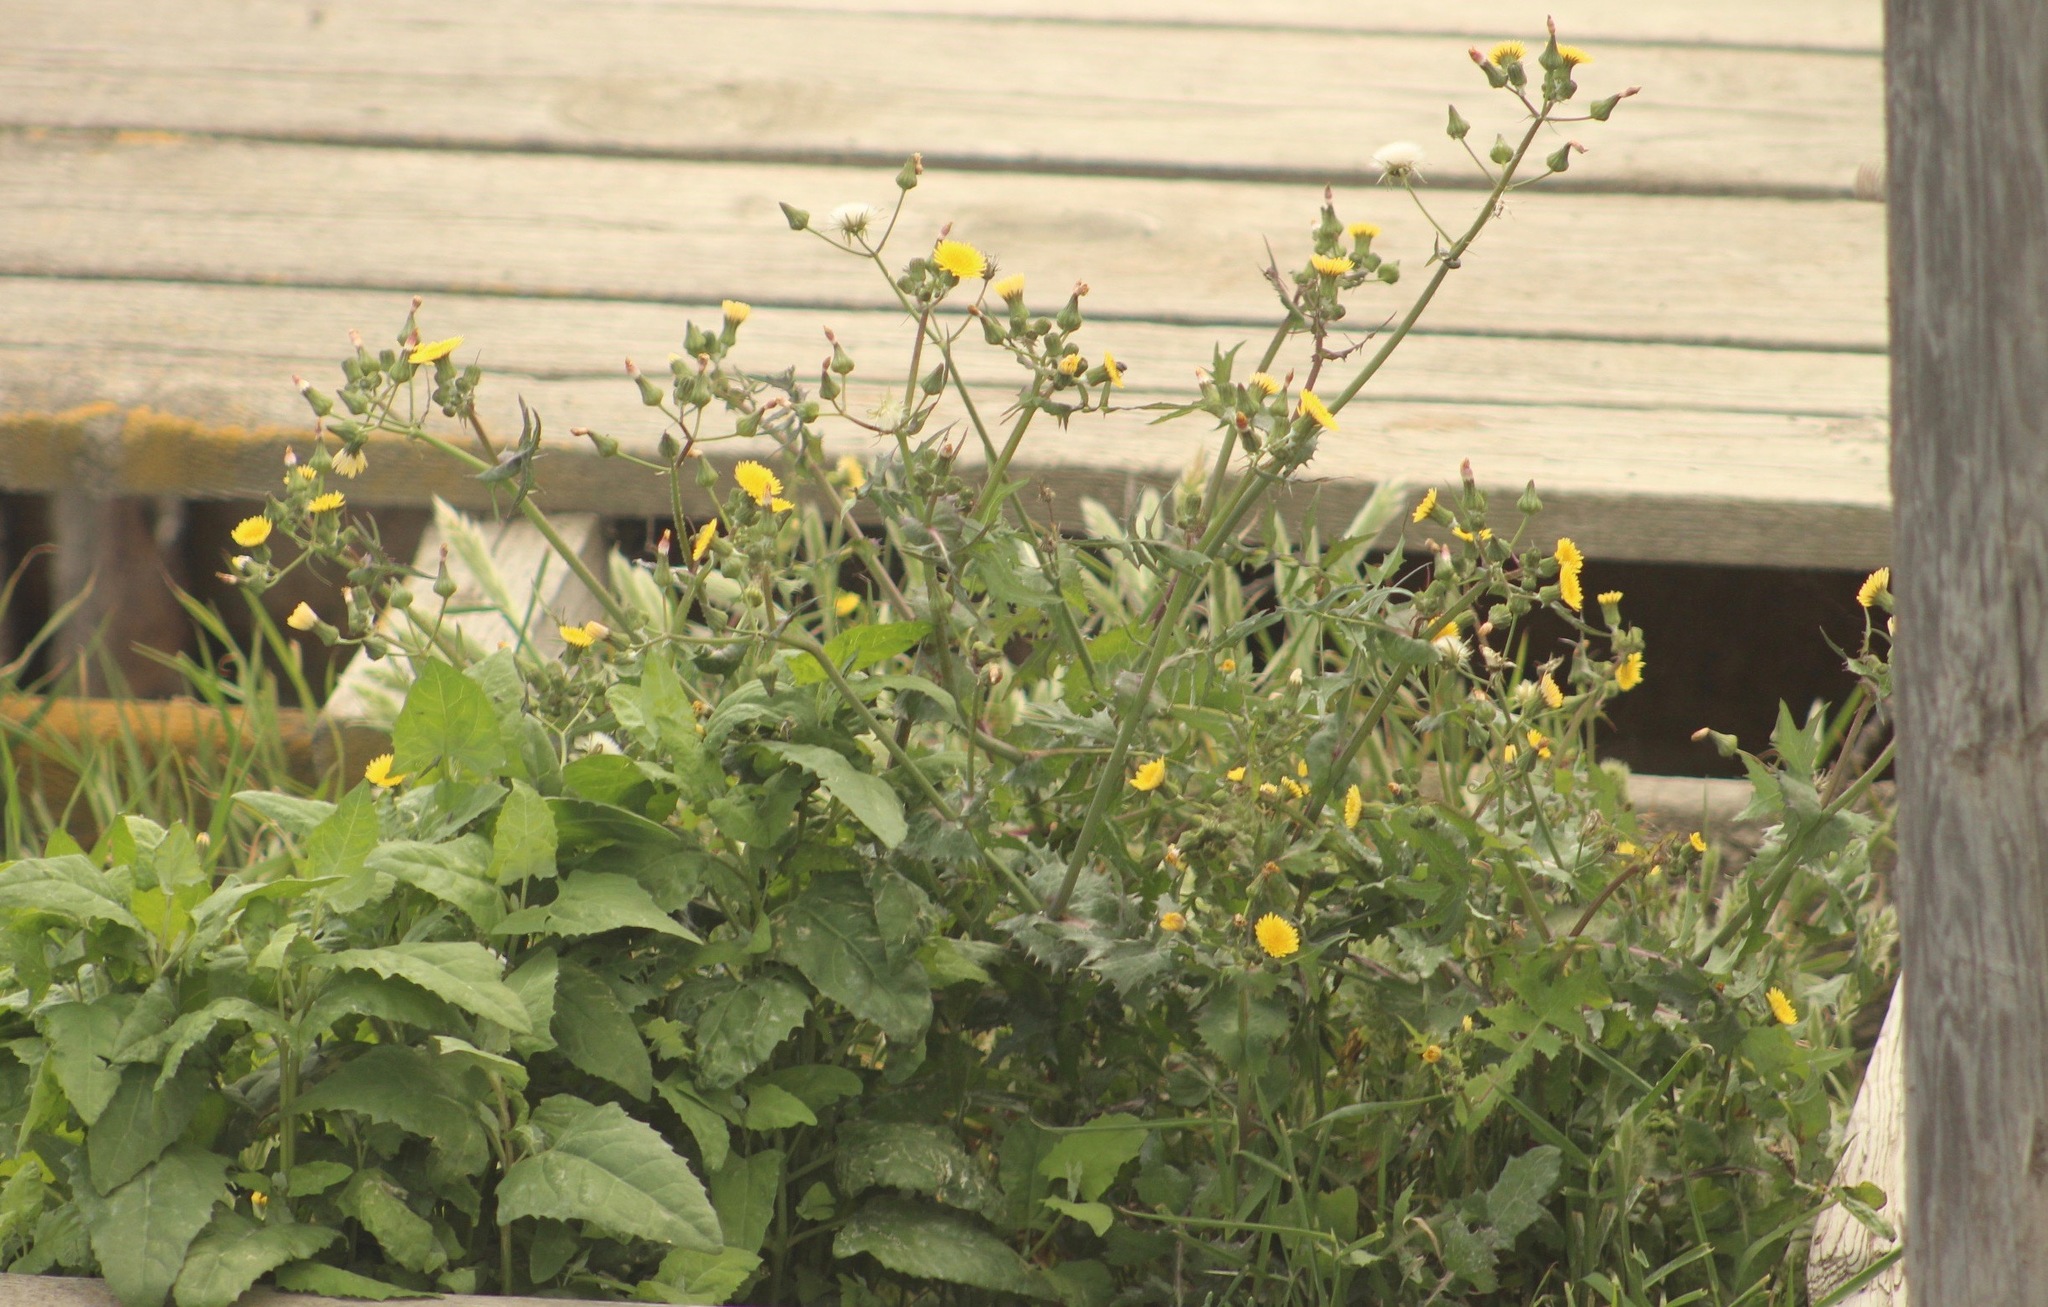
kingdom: Plantae
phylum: Tracheophyta
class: Magnoliopsida
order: Asterales
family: Asteraceae
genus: Sonchus
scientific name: Sonchus oleraceus
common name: Common sowthistle
